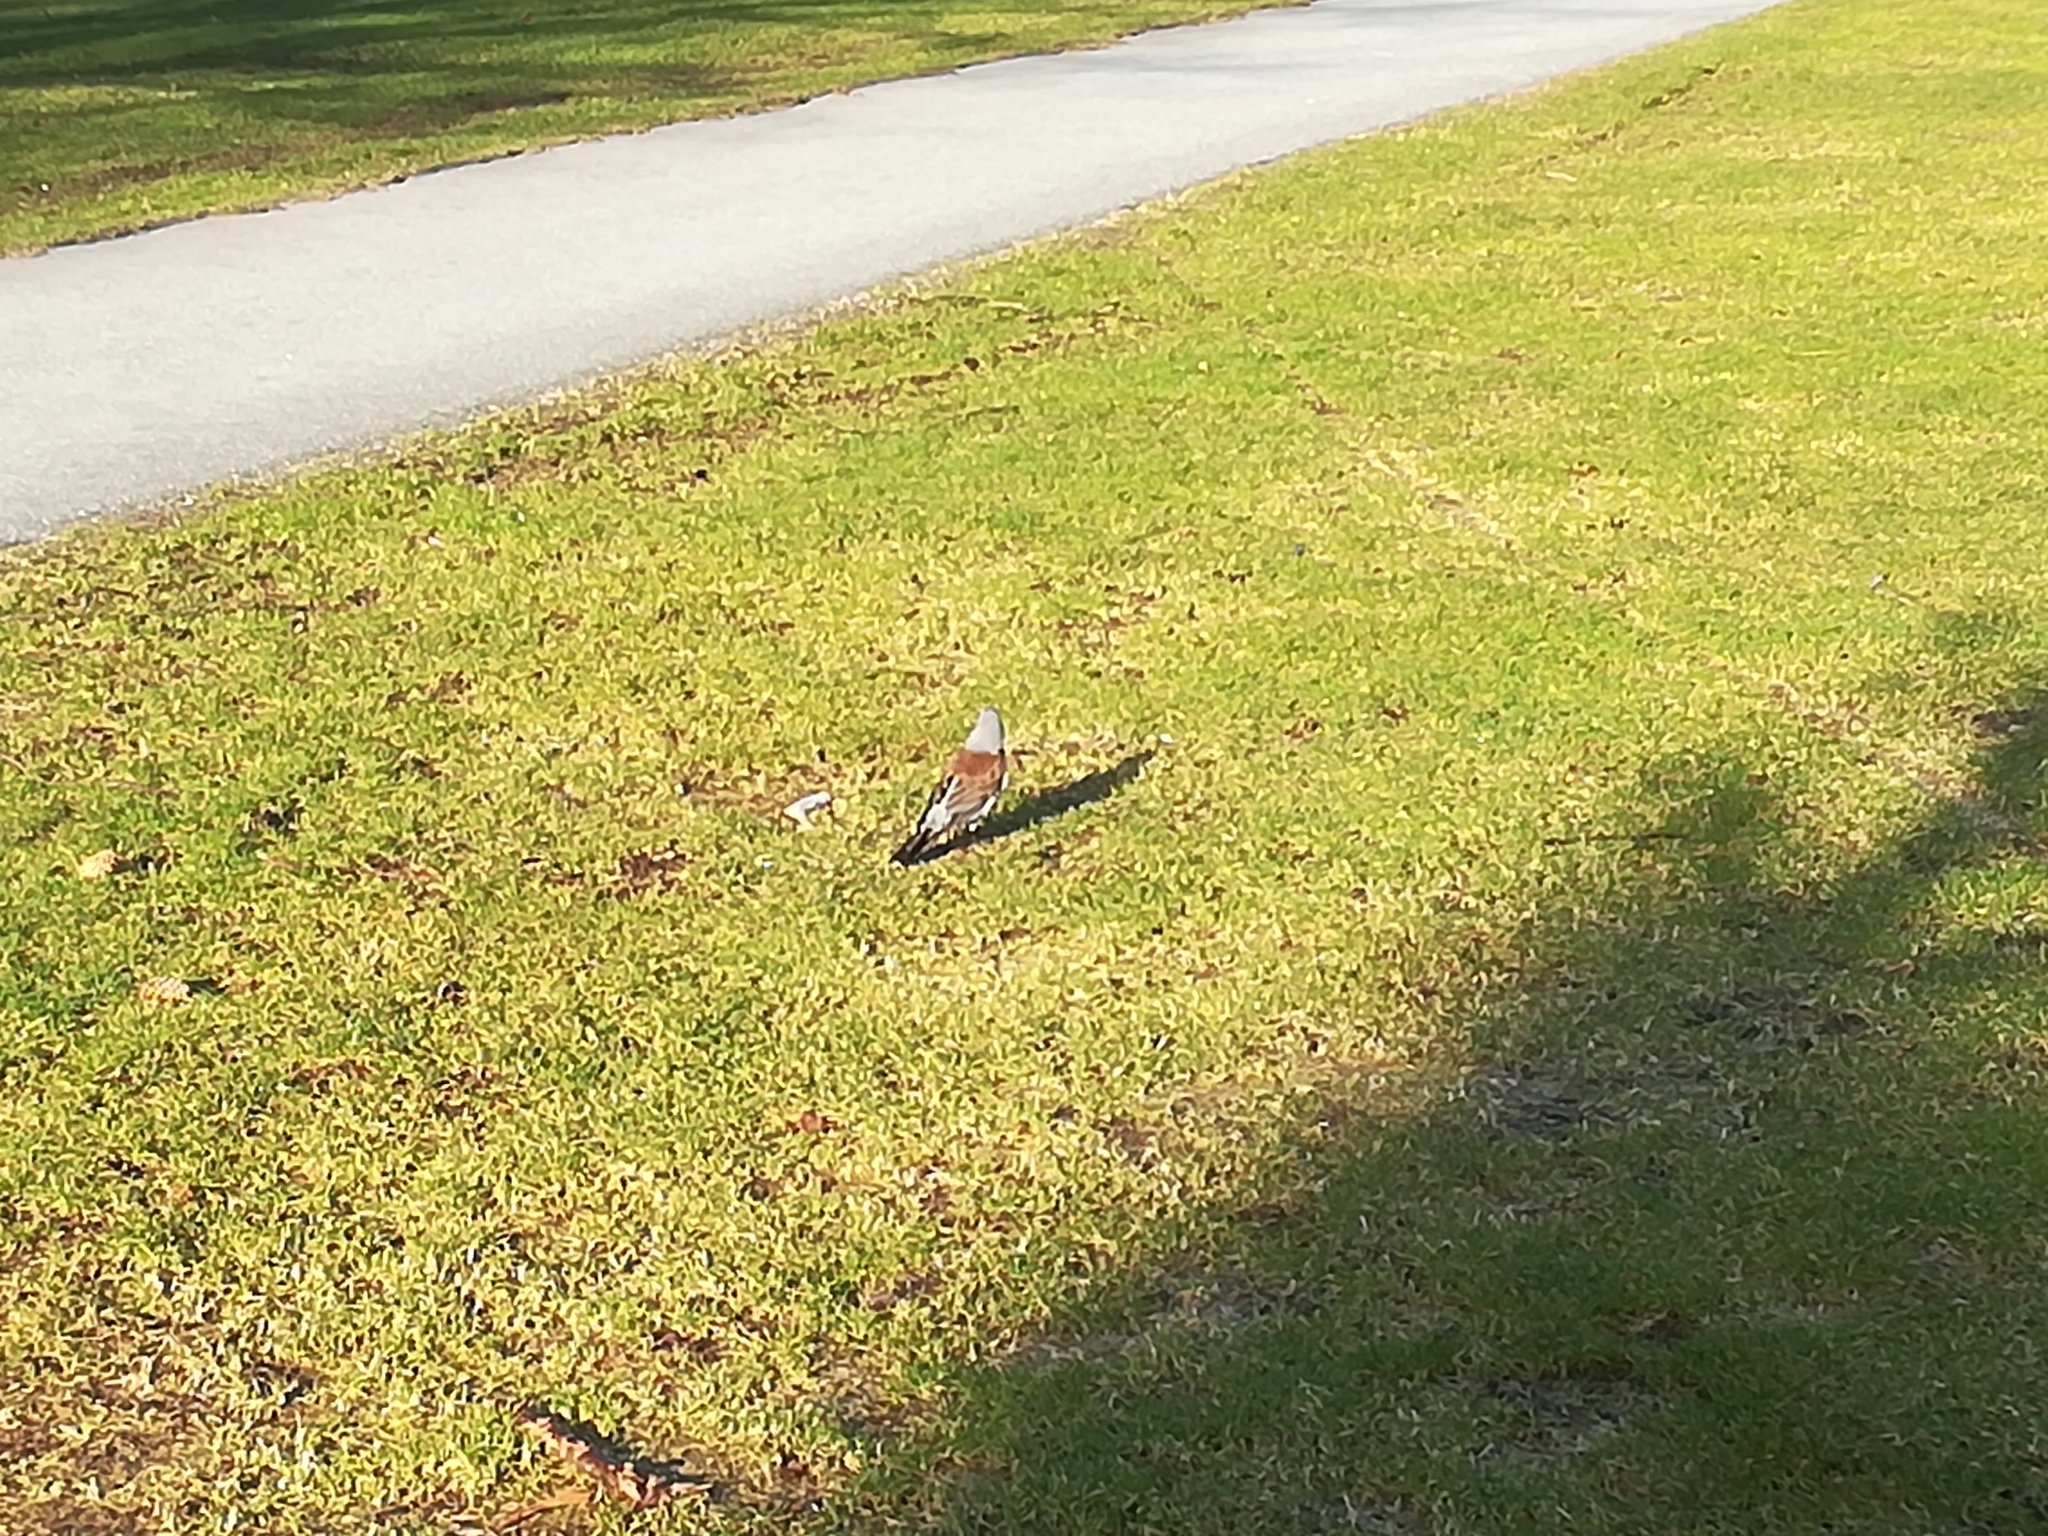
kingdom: Animalia
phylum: Chordata
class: Aves
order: Passeriformes
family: Turdidae
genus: Turdus
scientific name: Turdus pilaris
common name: Fieldfare
